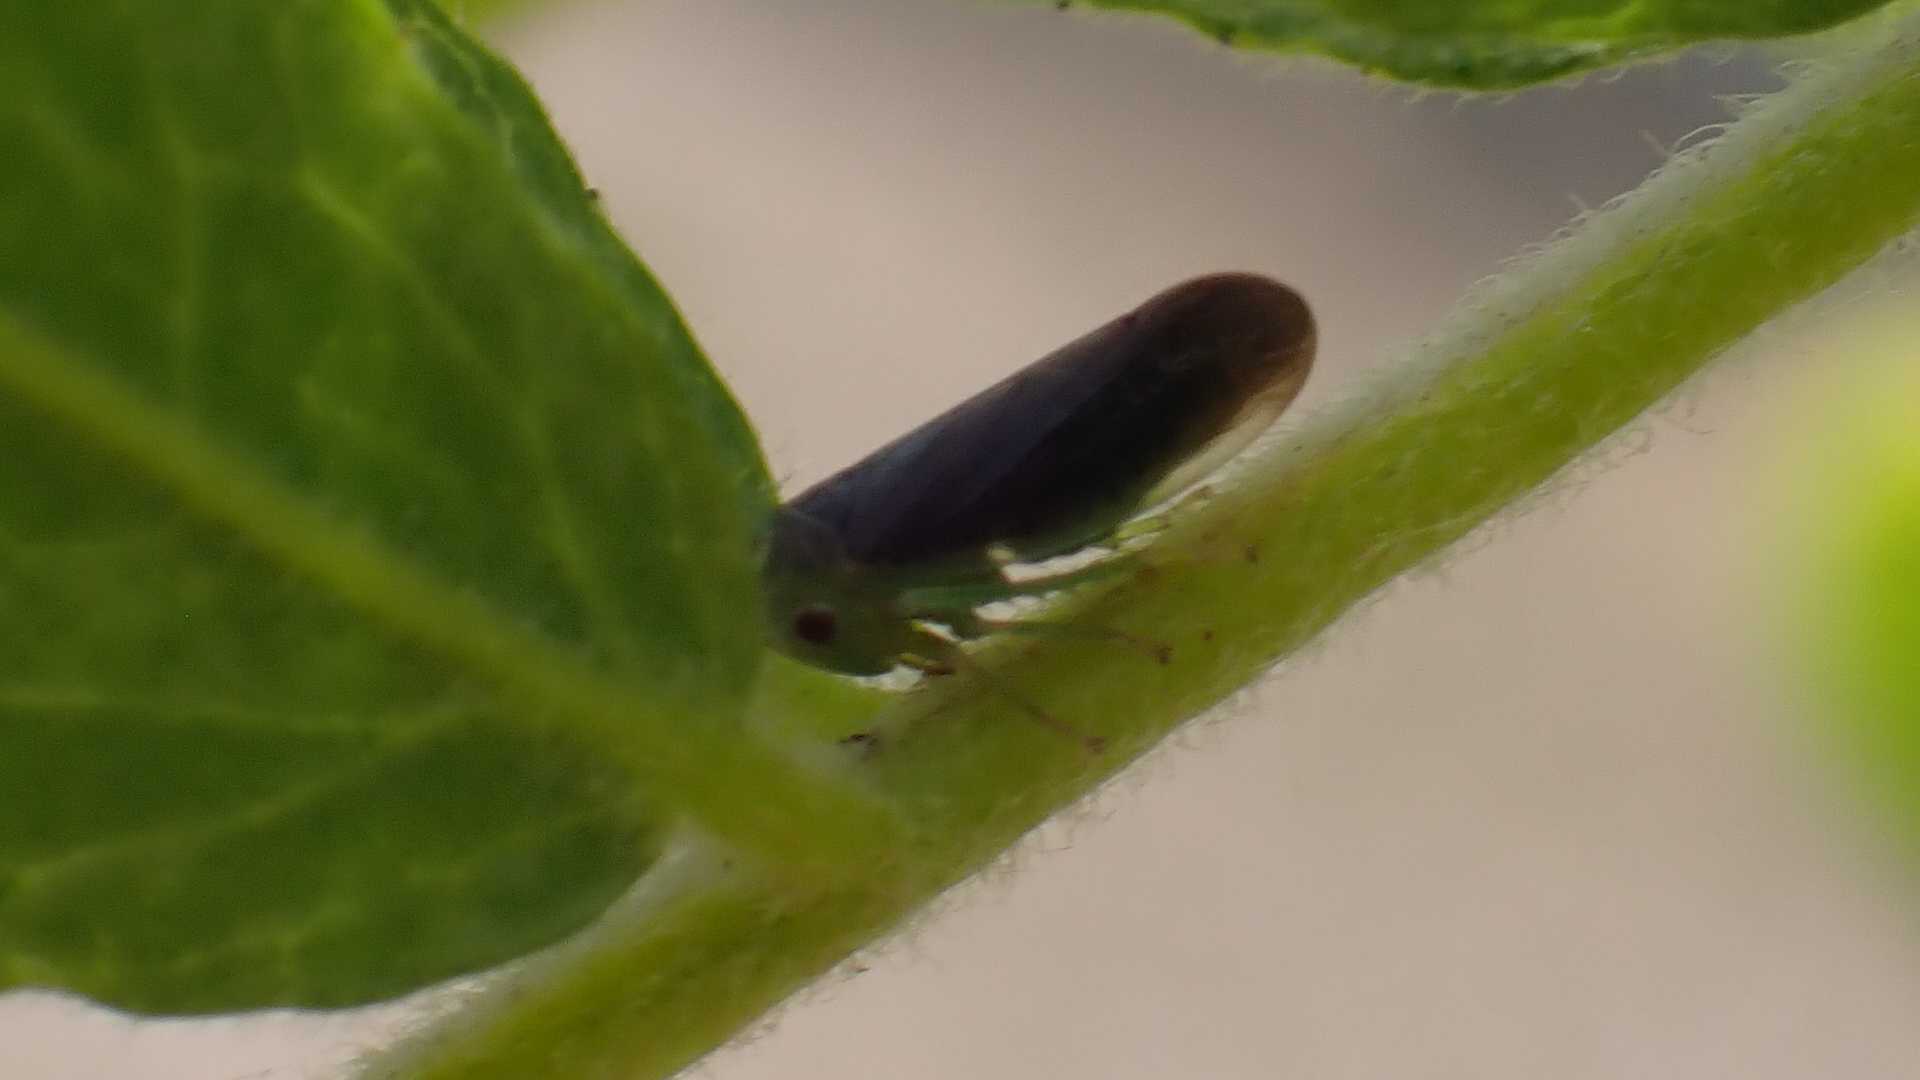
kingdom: Animalia
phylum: Arthropoda
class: Insecta
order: Hemiptera
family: Cicadellidae
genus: Macropsis
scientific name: Macropsis fumipennis
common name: The honeylocust leafhopper
